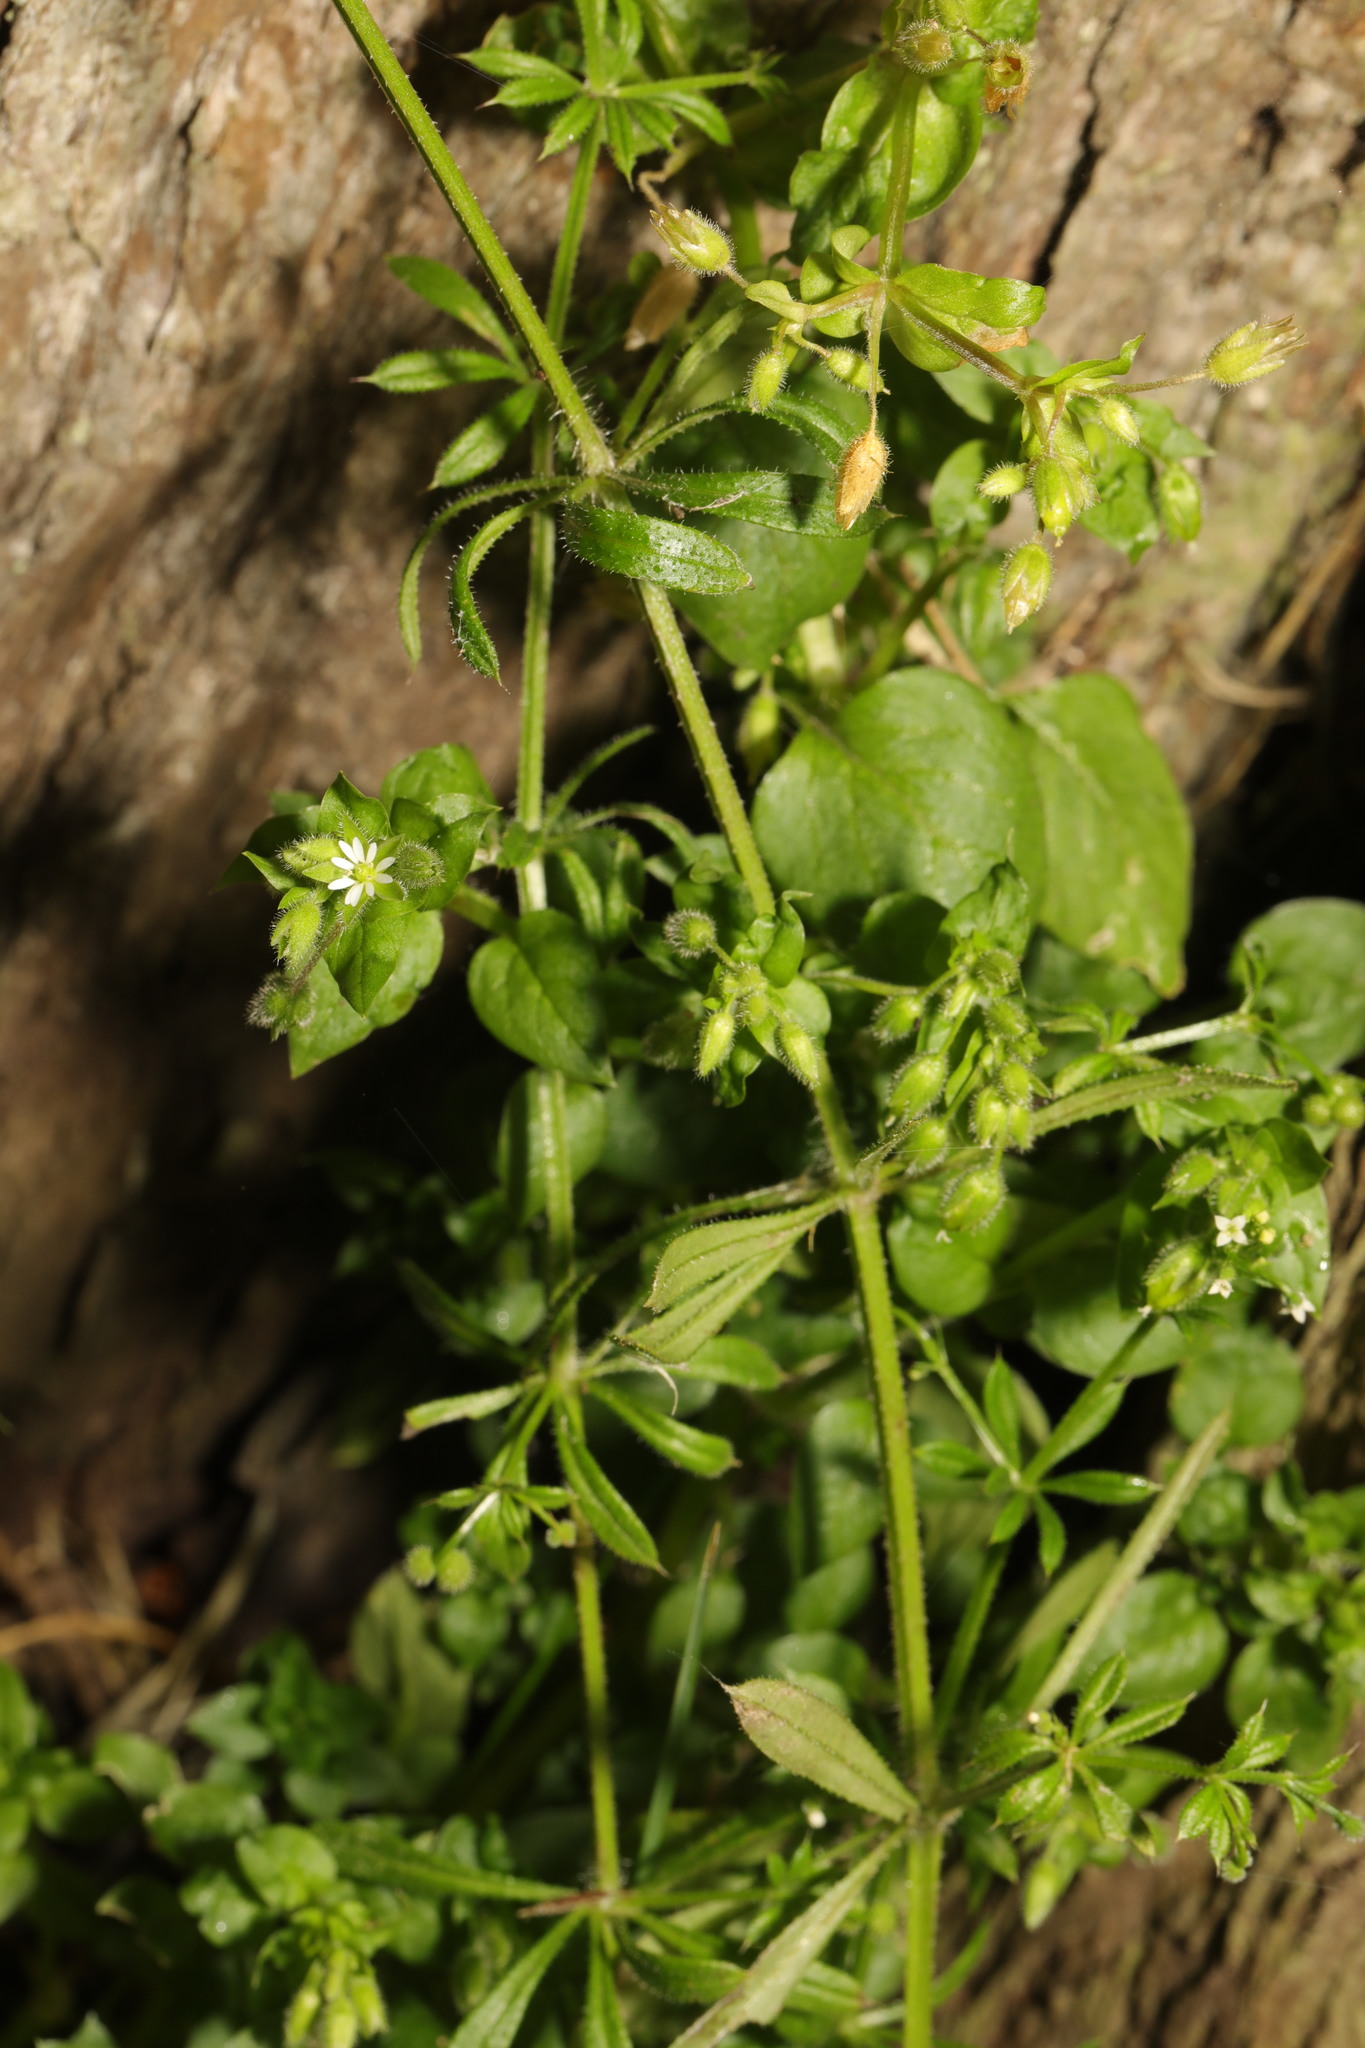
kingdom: Plantae
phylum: Tracheophyta
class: Magnoliopsida
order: Gentianales
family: Rubiaceae
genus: Galium
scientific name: Galium aparine
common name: Cleavers
